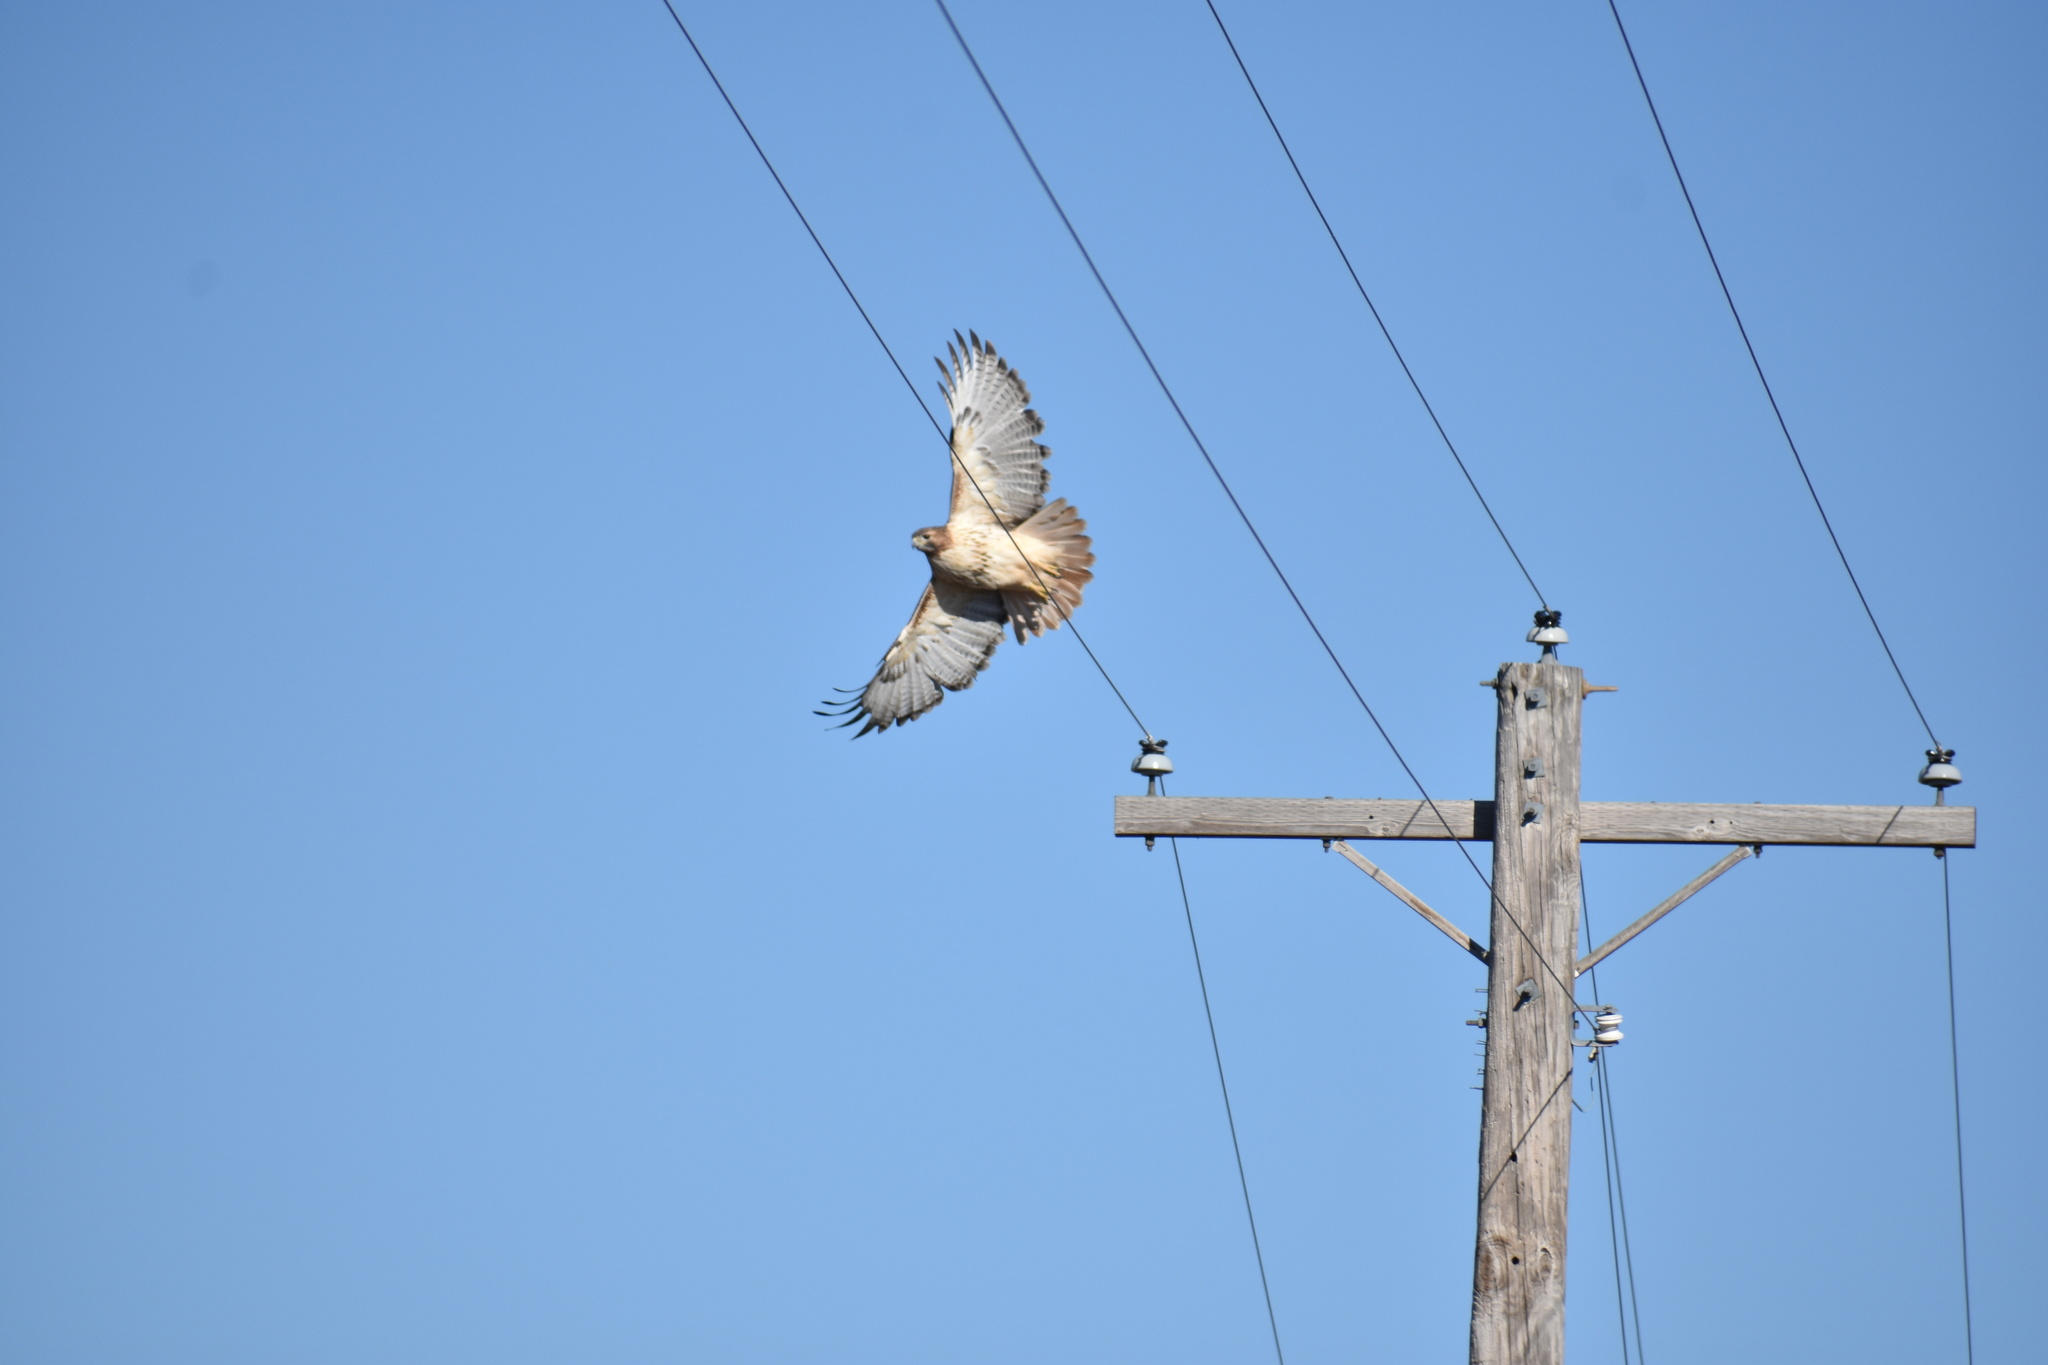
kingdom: Animalia
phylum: Chordata
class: Aves
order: Accipitriformes
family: Accipitridae
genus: Buteo
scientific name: Buteo jamaicensis
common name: Red-tailed hawk
